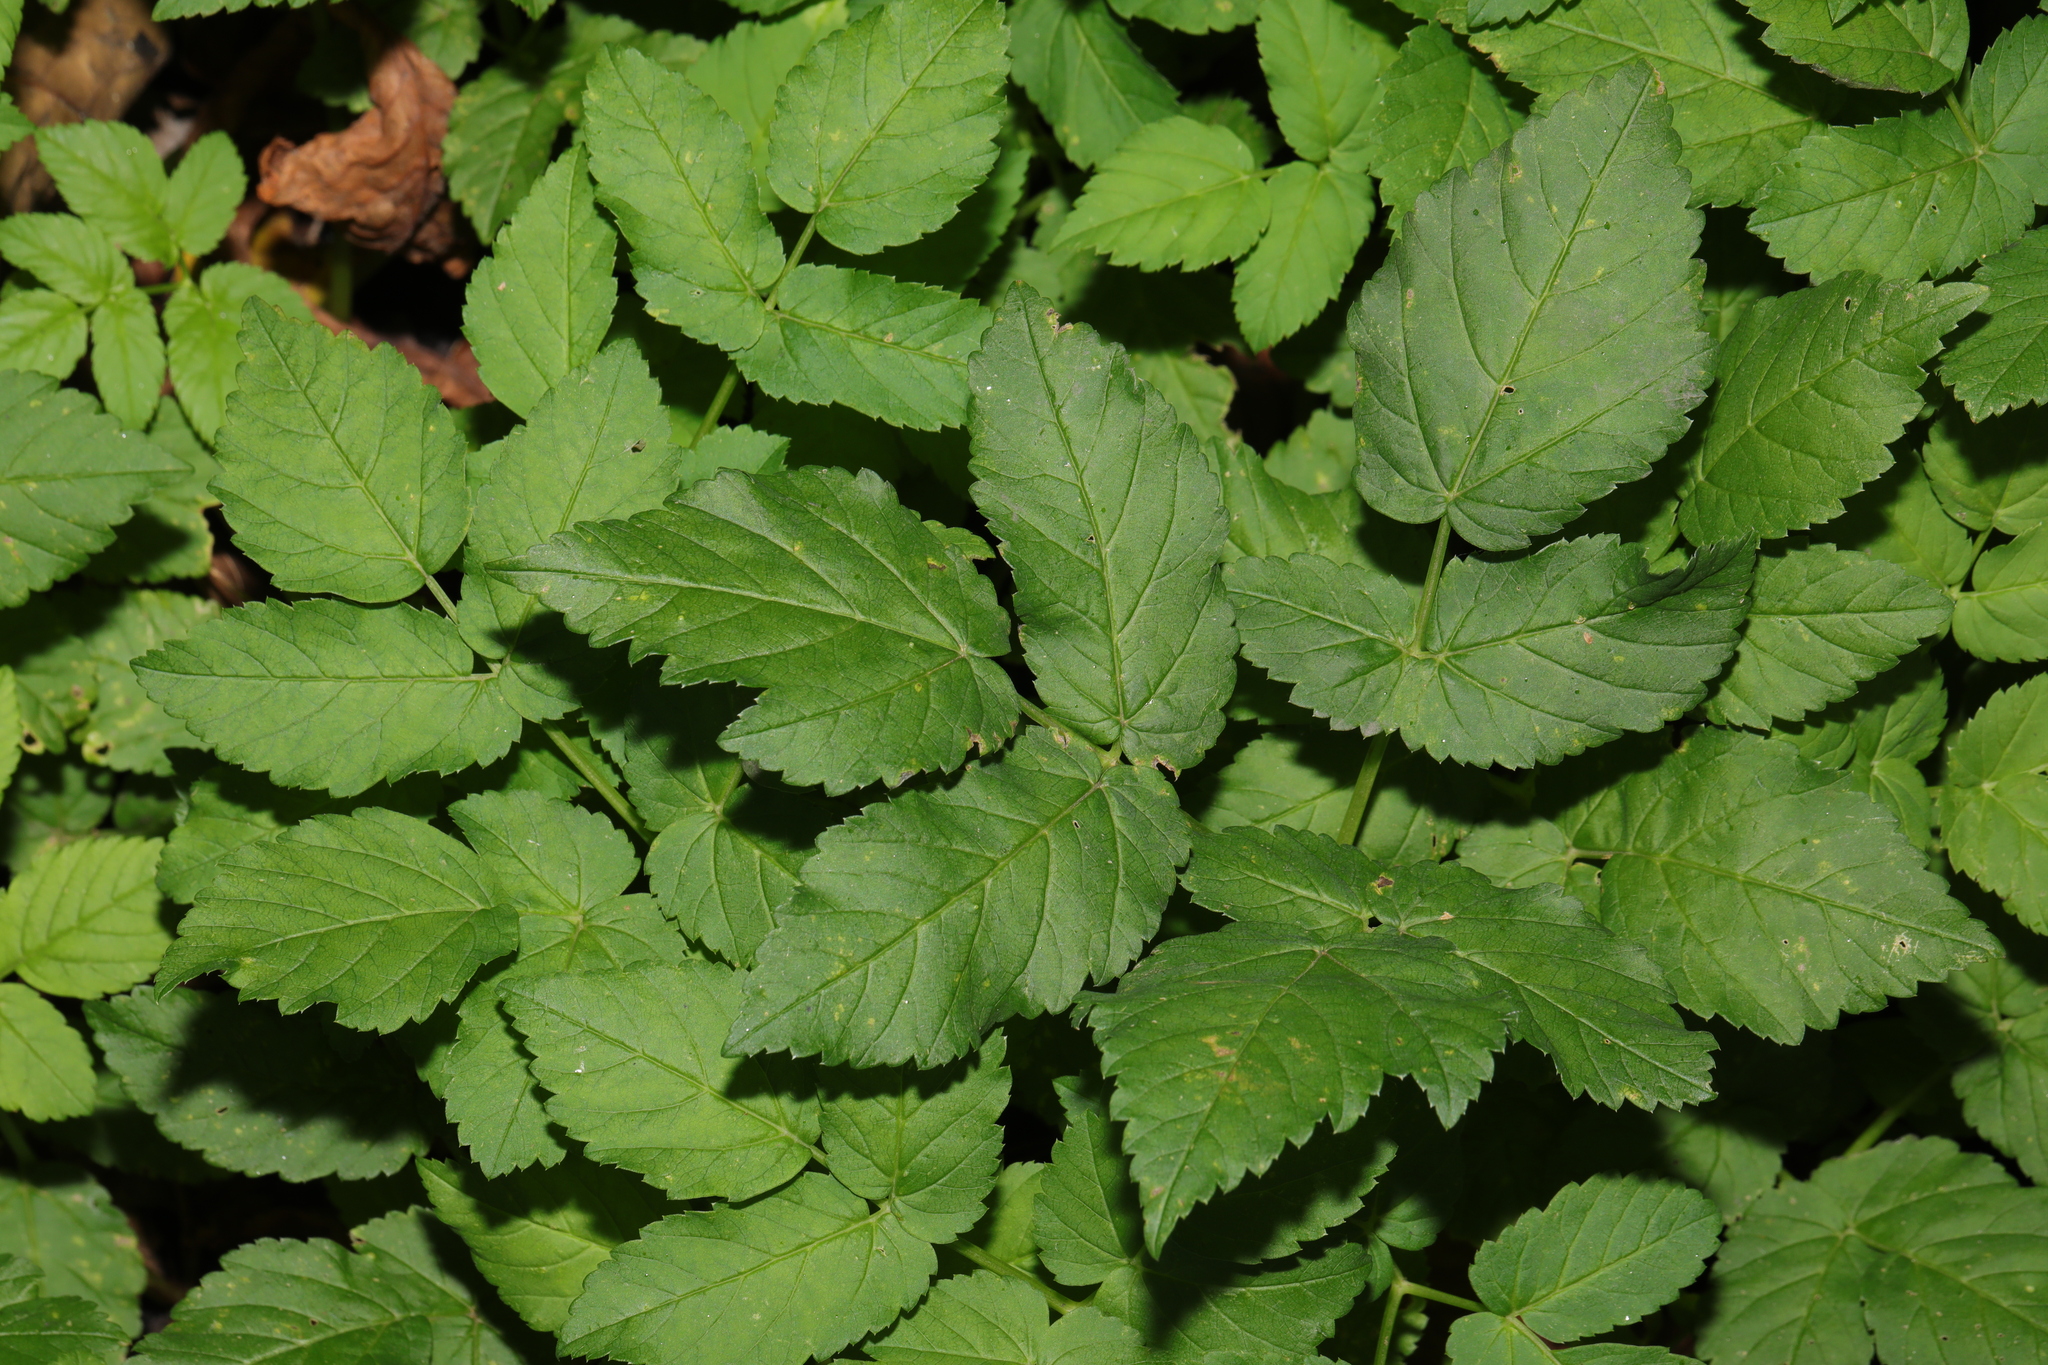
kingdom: Plantae
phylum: Tracheophyta
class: Magnoliopsida
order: Apiales
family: Apiaceae
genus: Aegopodium
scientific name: Aegopodium podagraria
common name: Ground-elder
